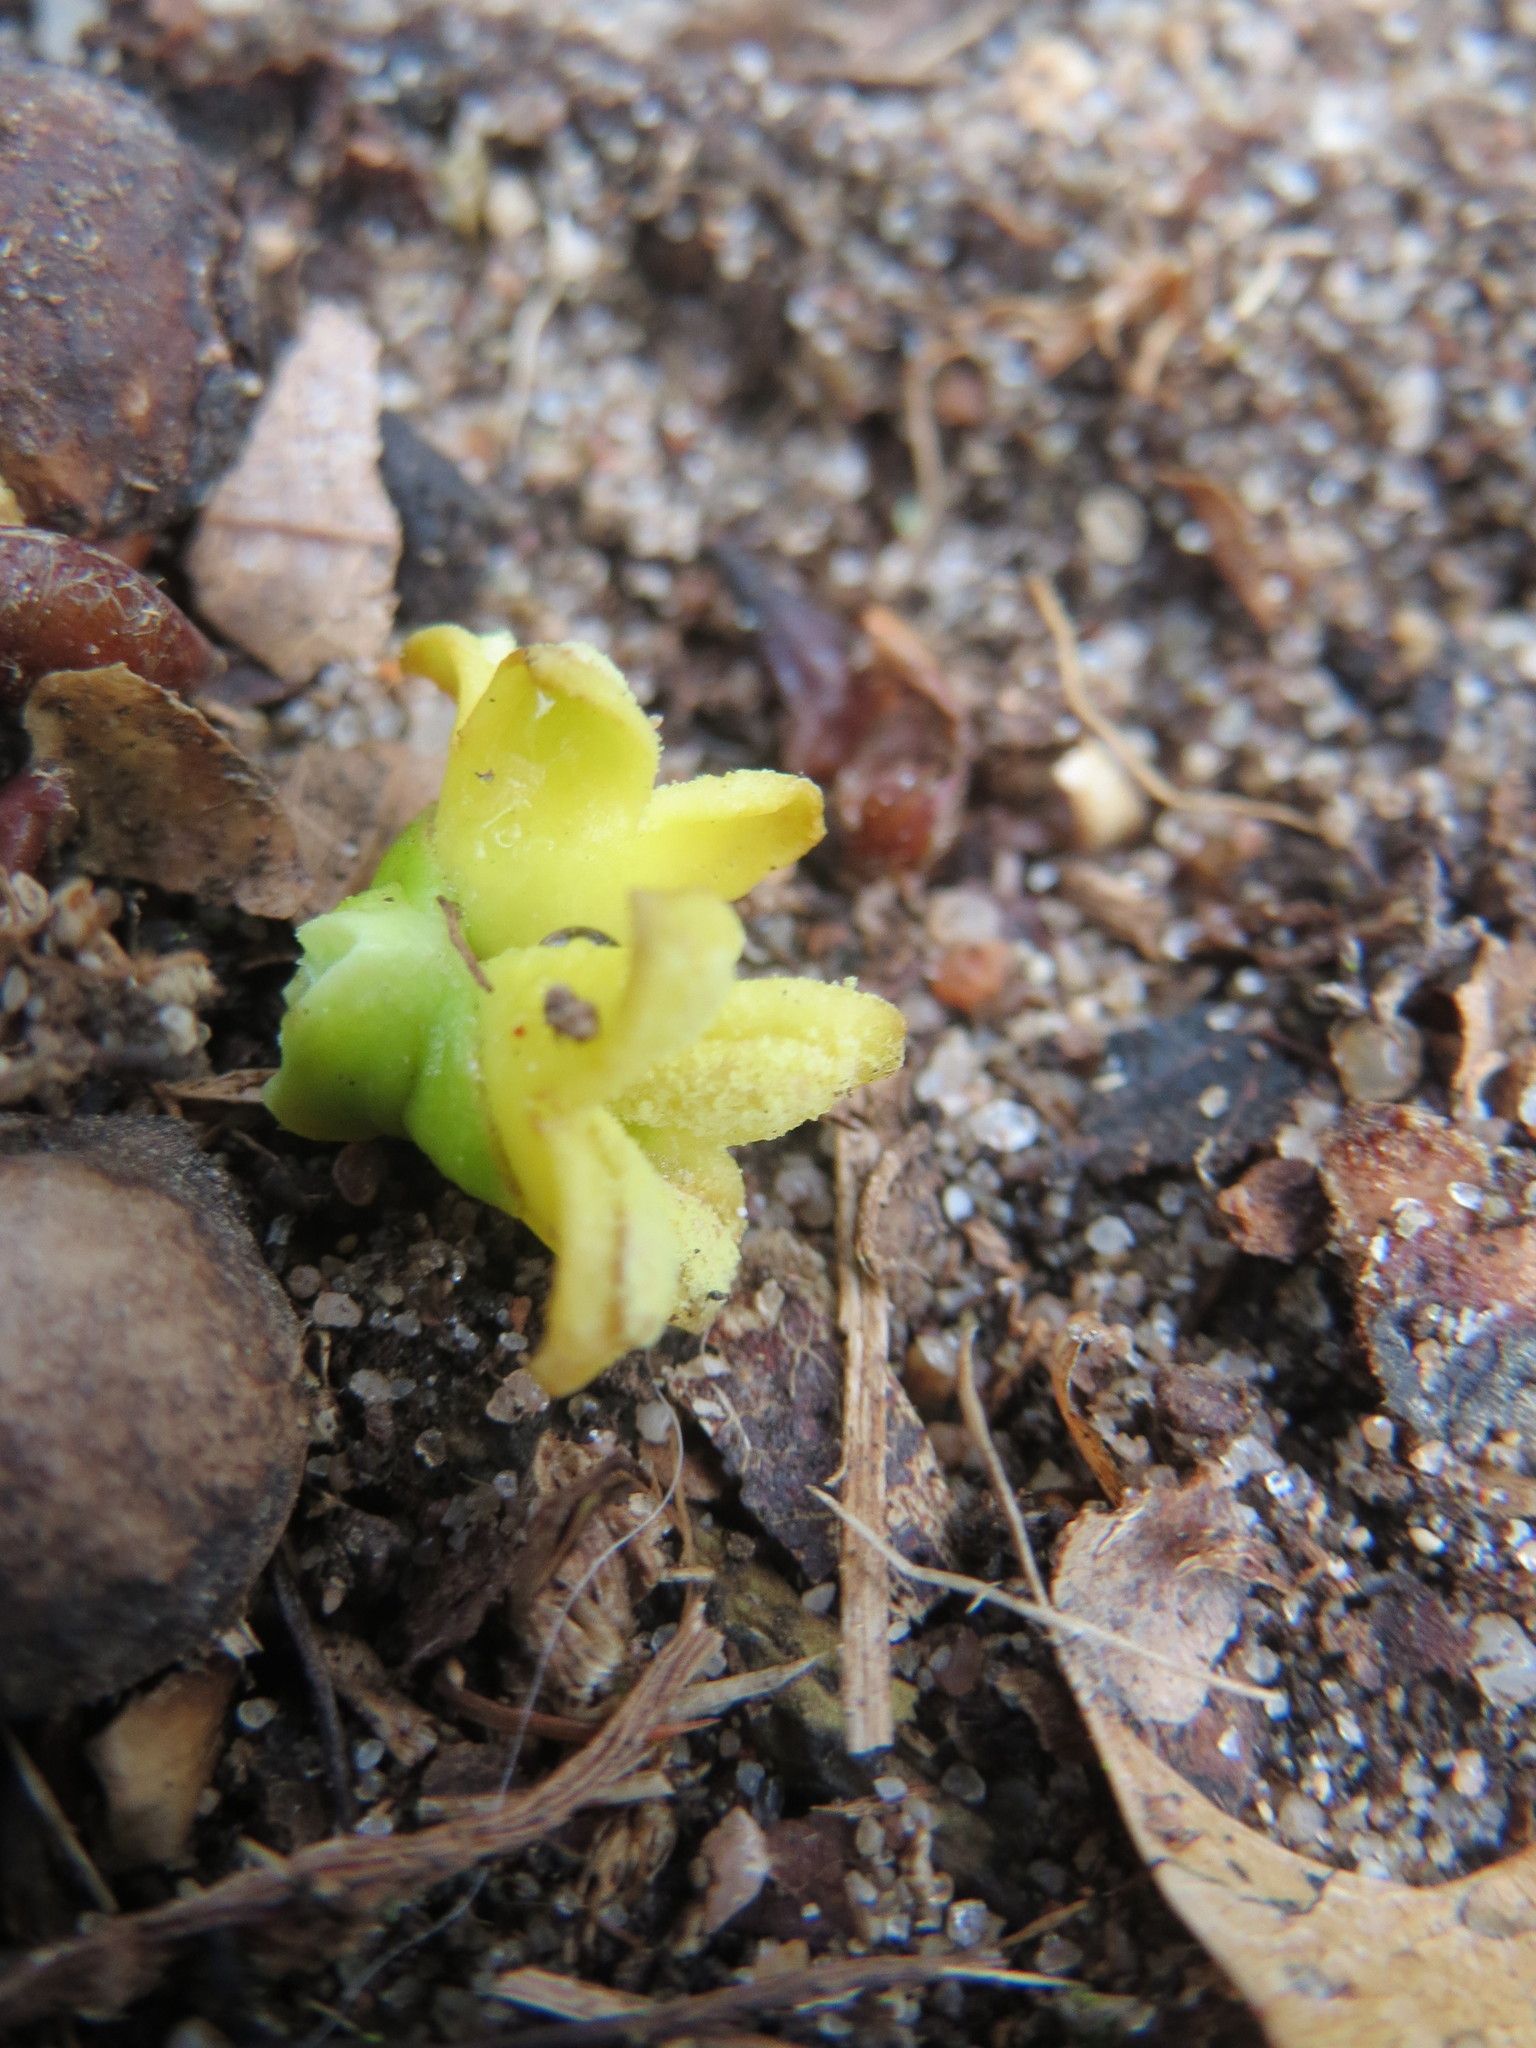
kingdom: Plantae
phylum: Tracheophyta
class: Magnoliopsida
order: Santalales
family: Viscaceae
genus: Viscum
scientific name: Viscum album
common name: Mistletoe
